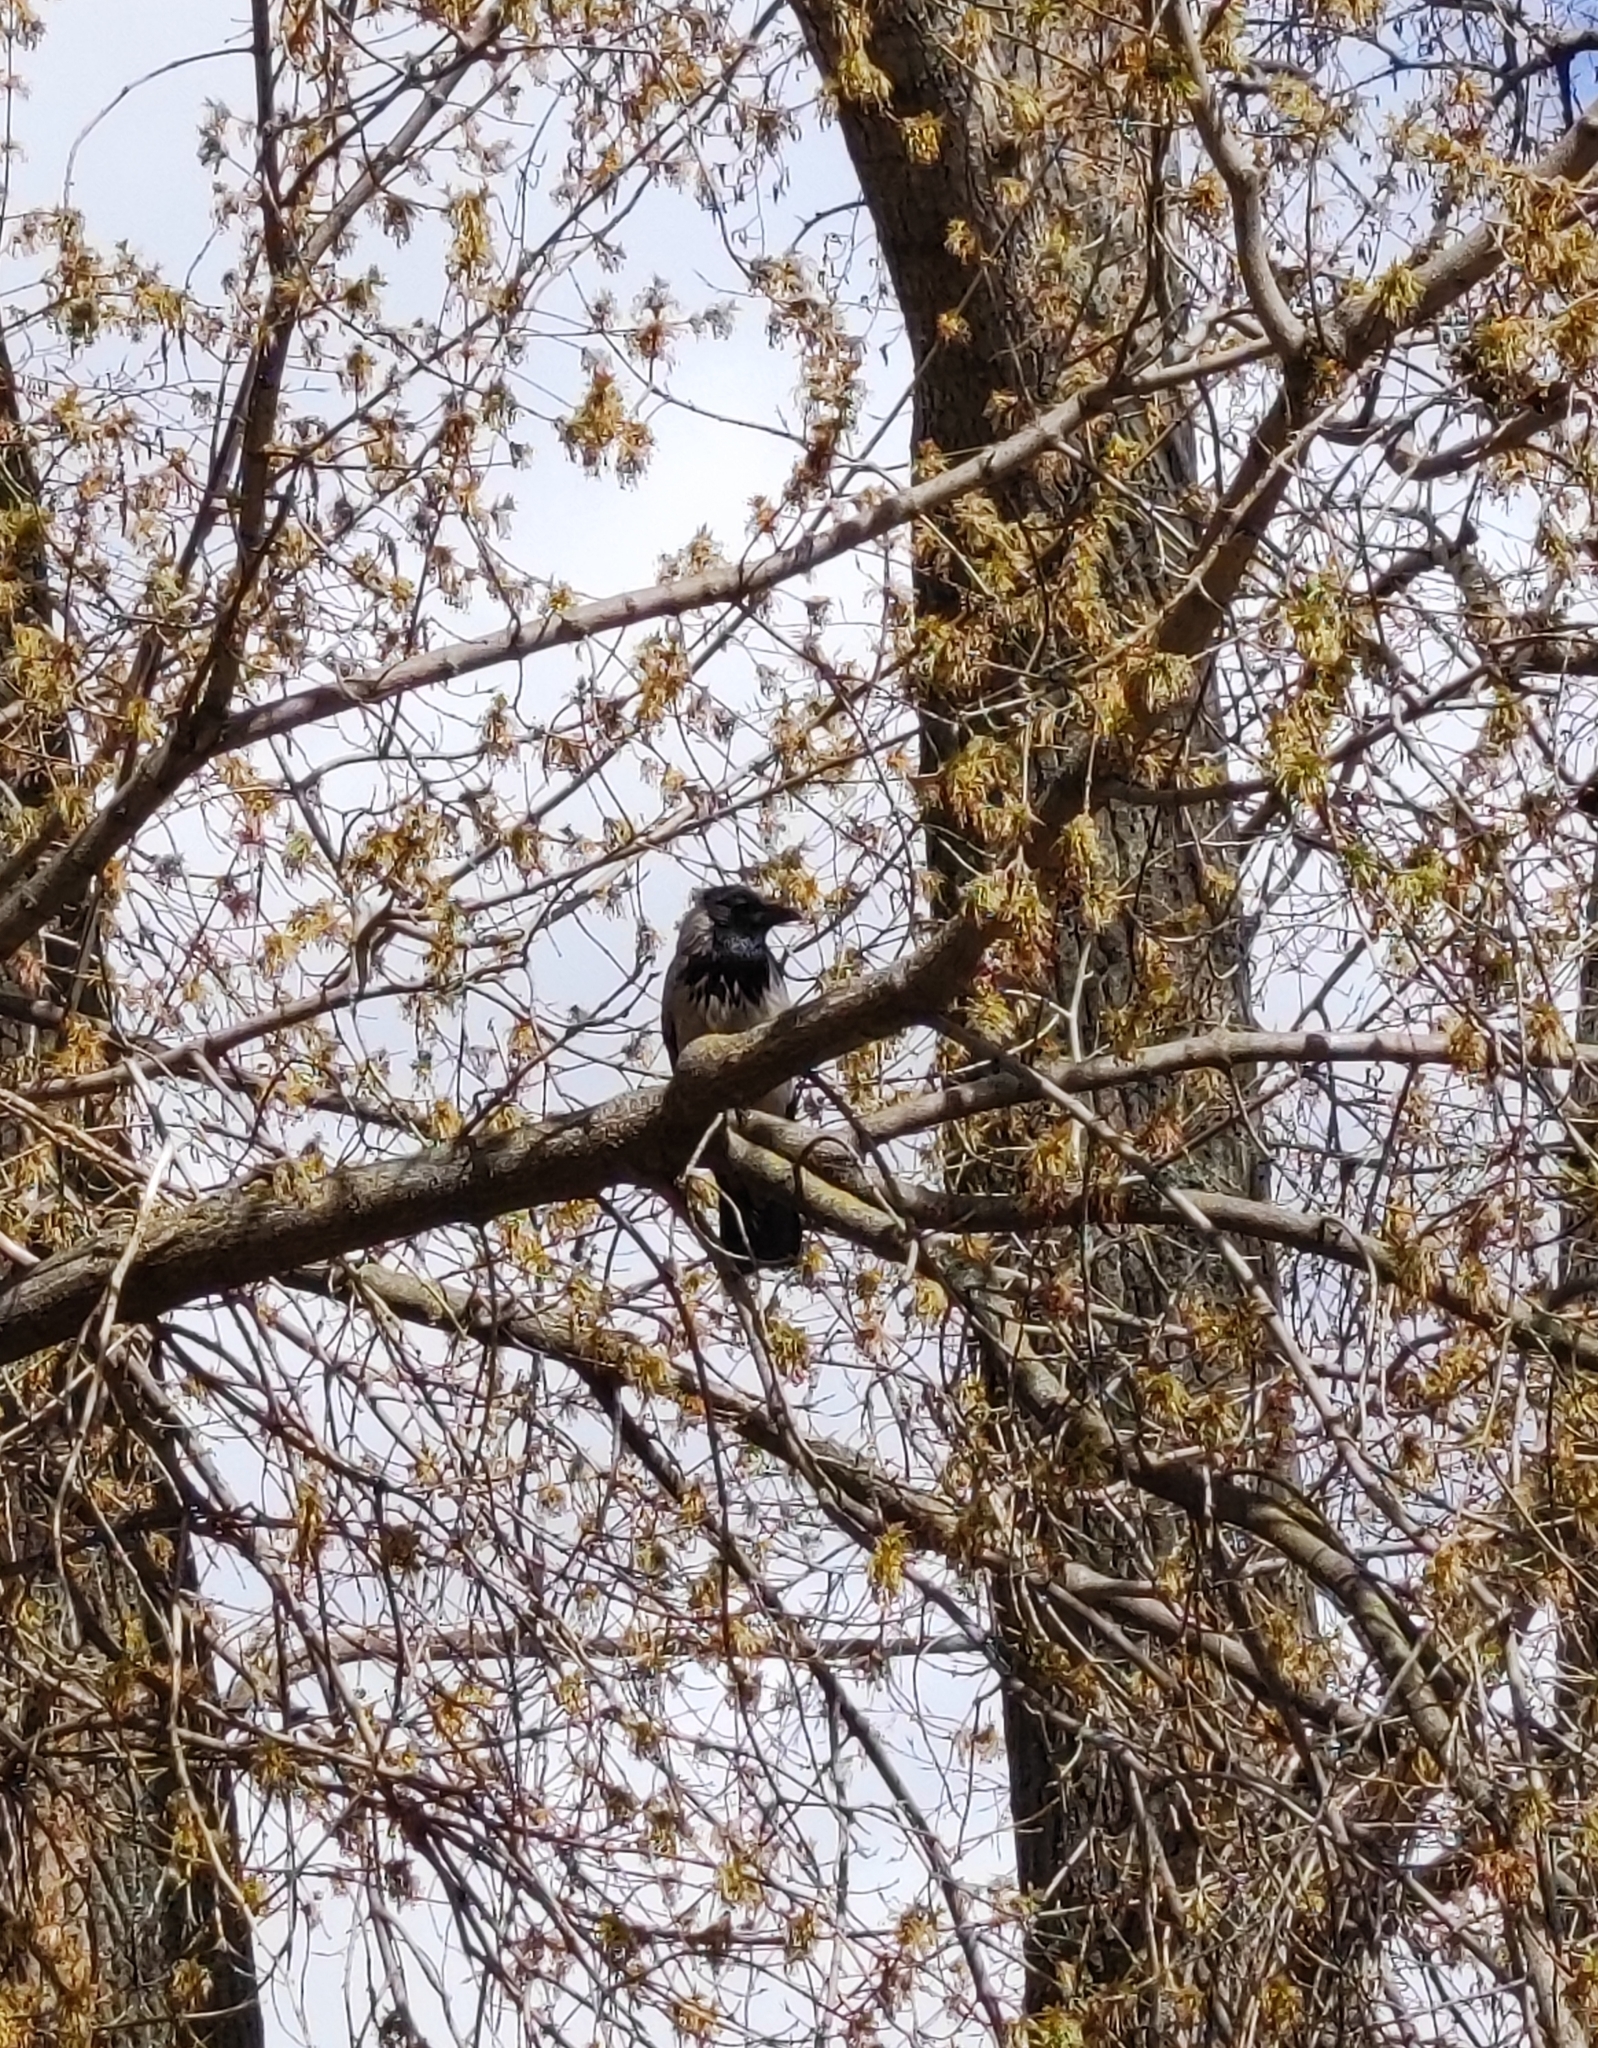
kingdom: Animalia
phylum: Chordata
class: Aves
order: Passeriformes
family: Corvidae
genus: Corvus
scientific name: Corvus cornix
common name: Hooded crow
